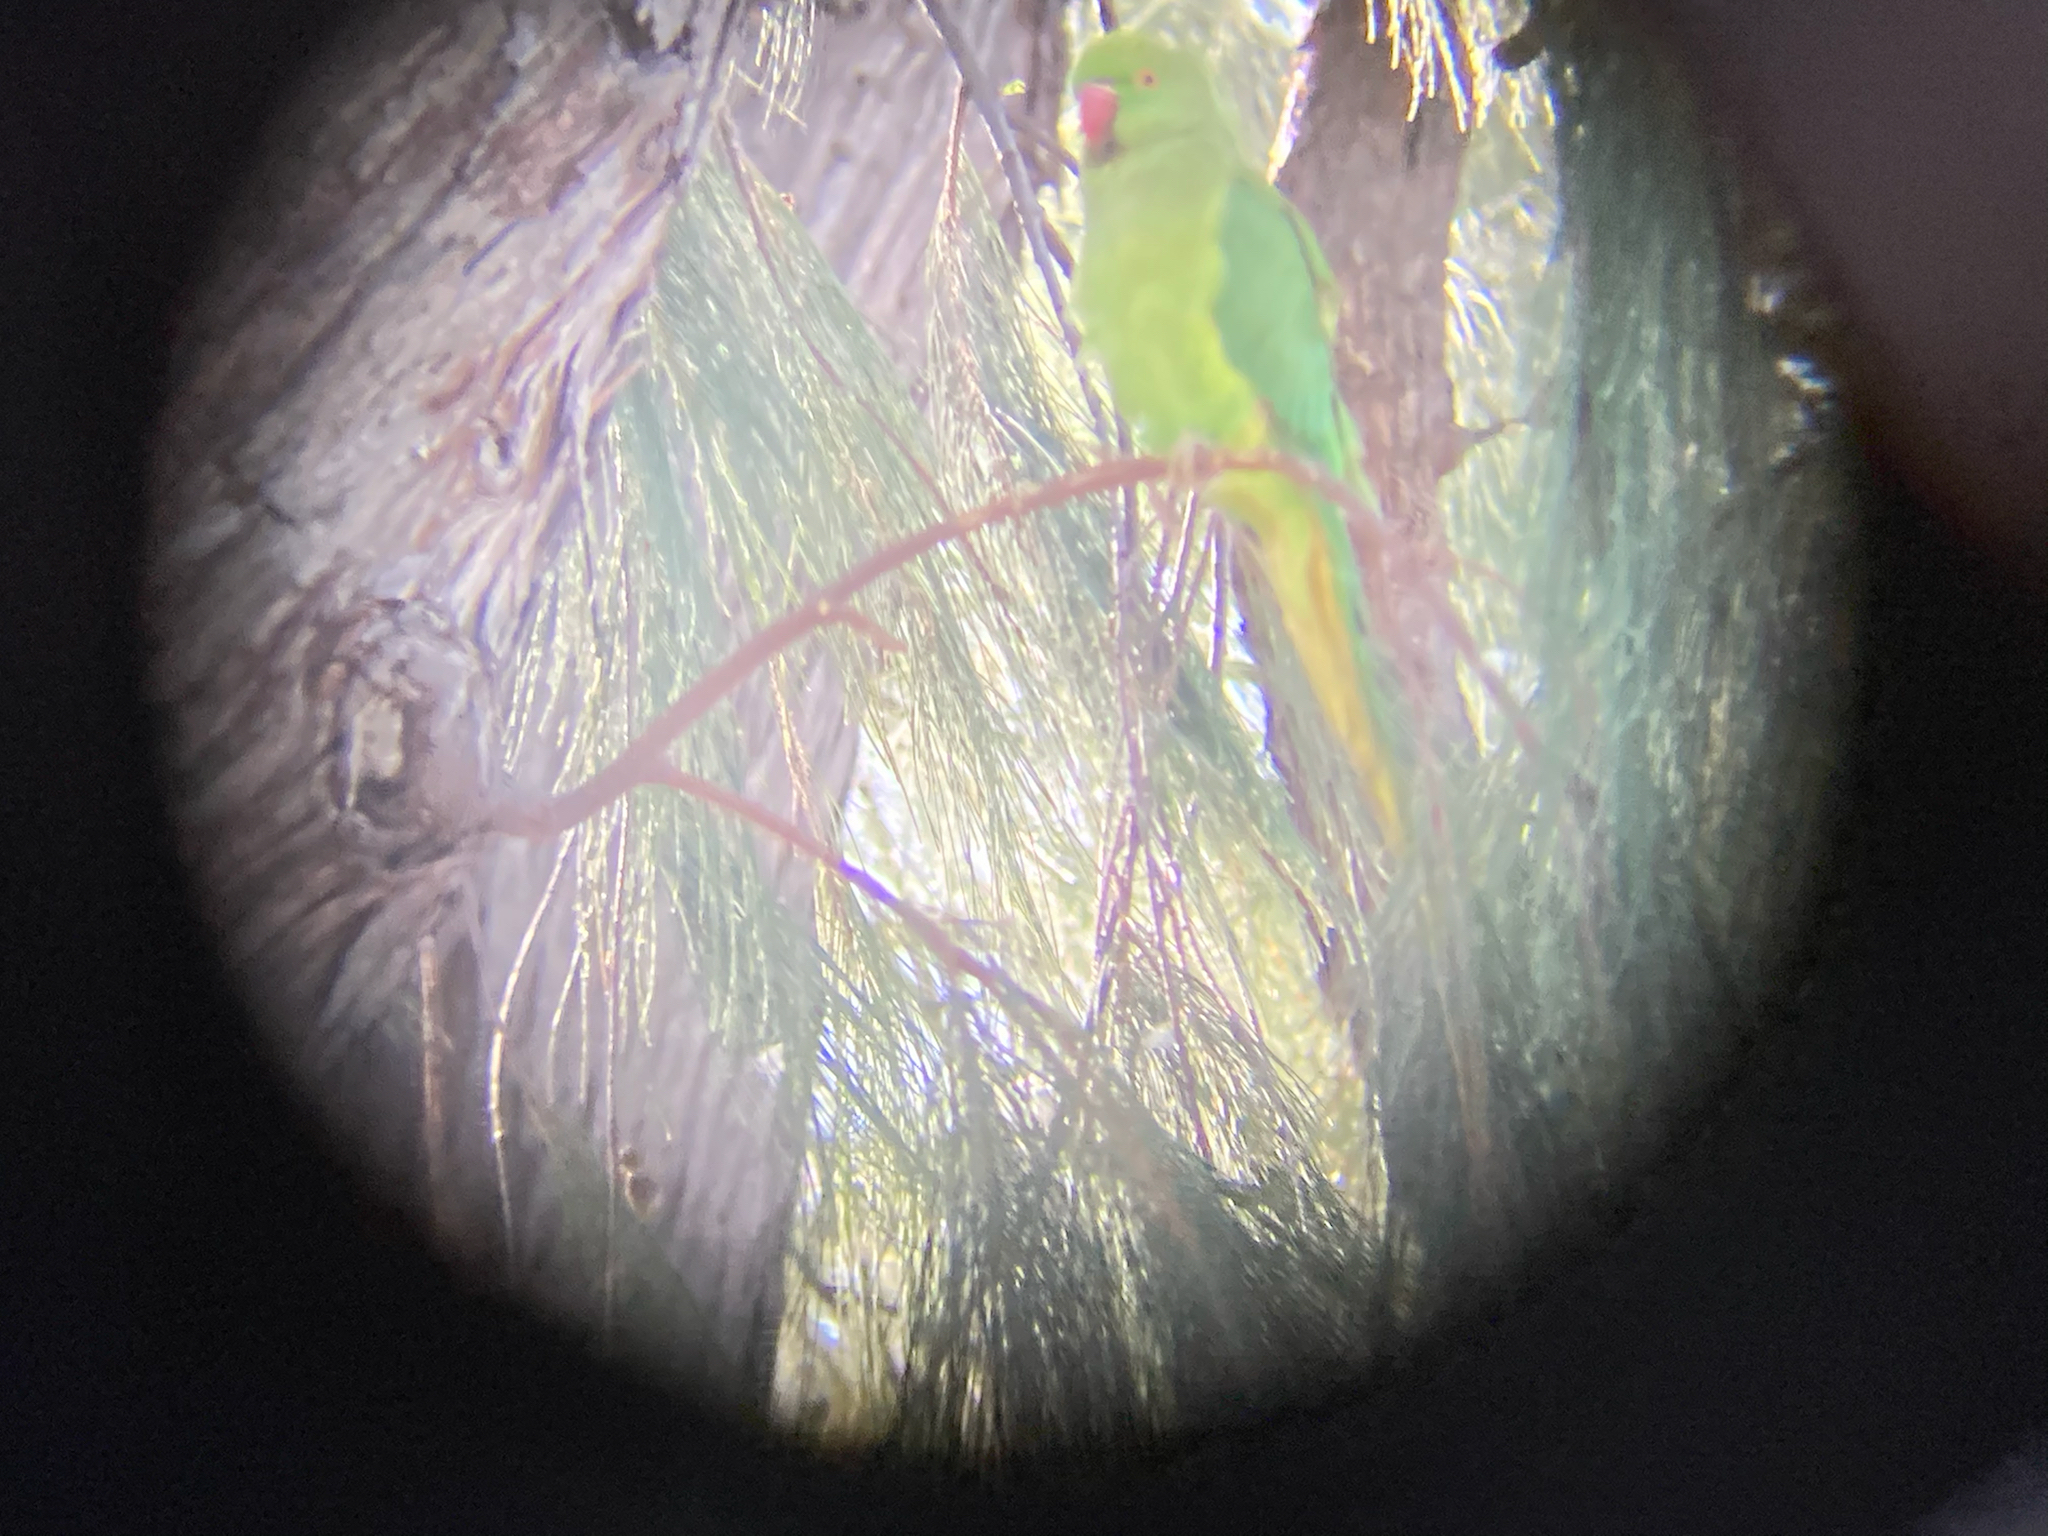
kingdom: Animalia
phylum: Chordata
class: Aves
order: Psittaciformes
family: Psittacidae
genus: Psittacula
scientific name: Psittacula krameri
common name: Rose-ringed parakeet
